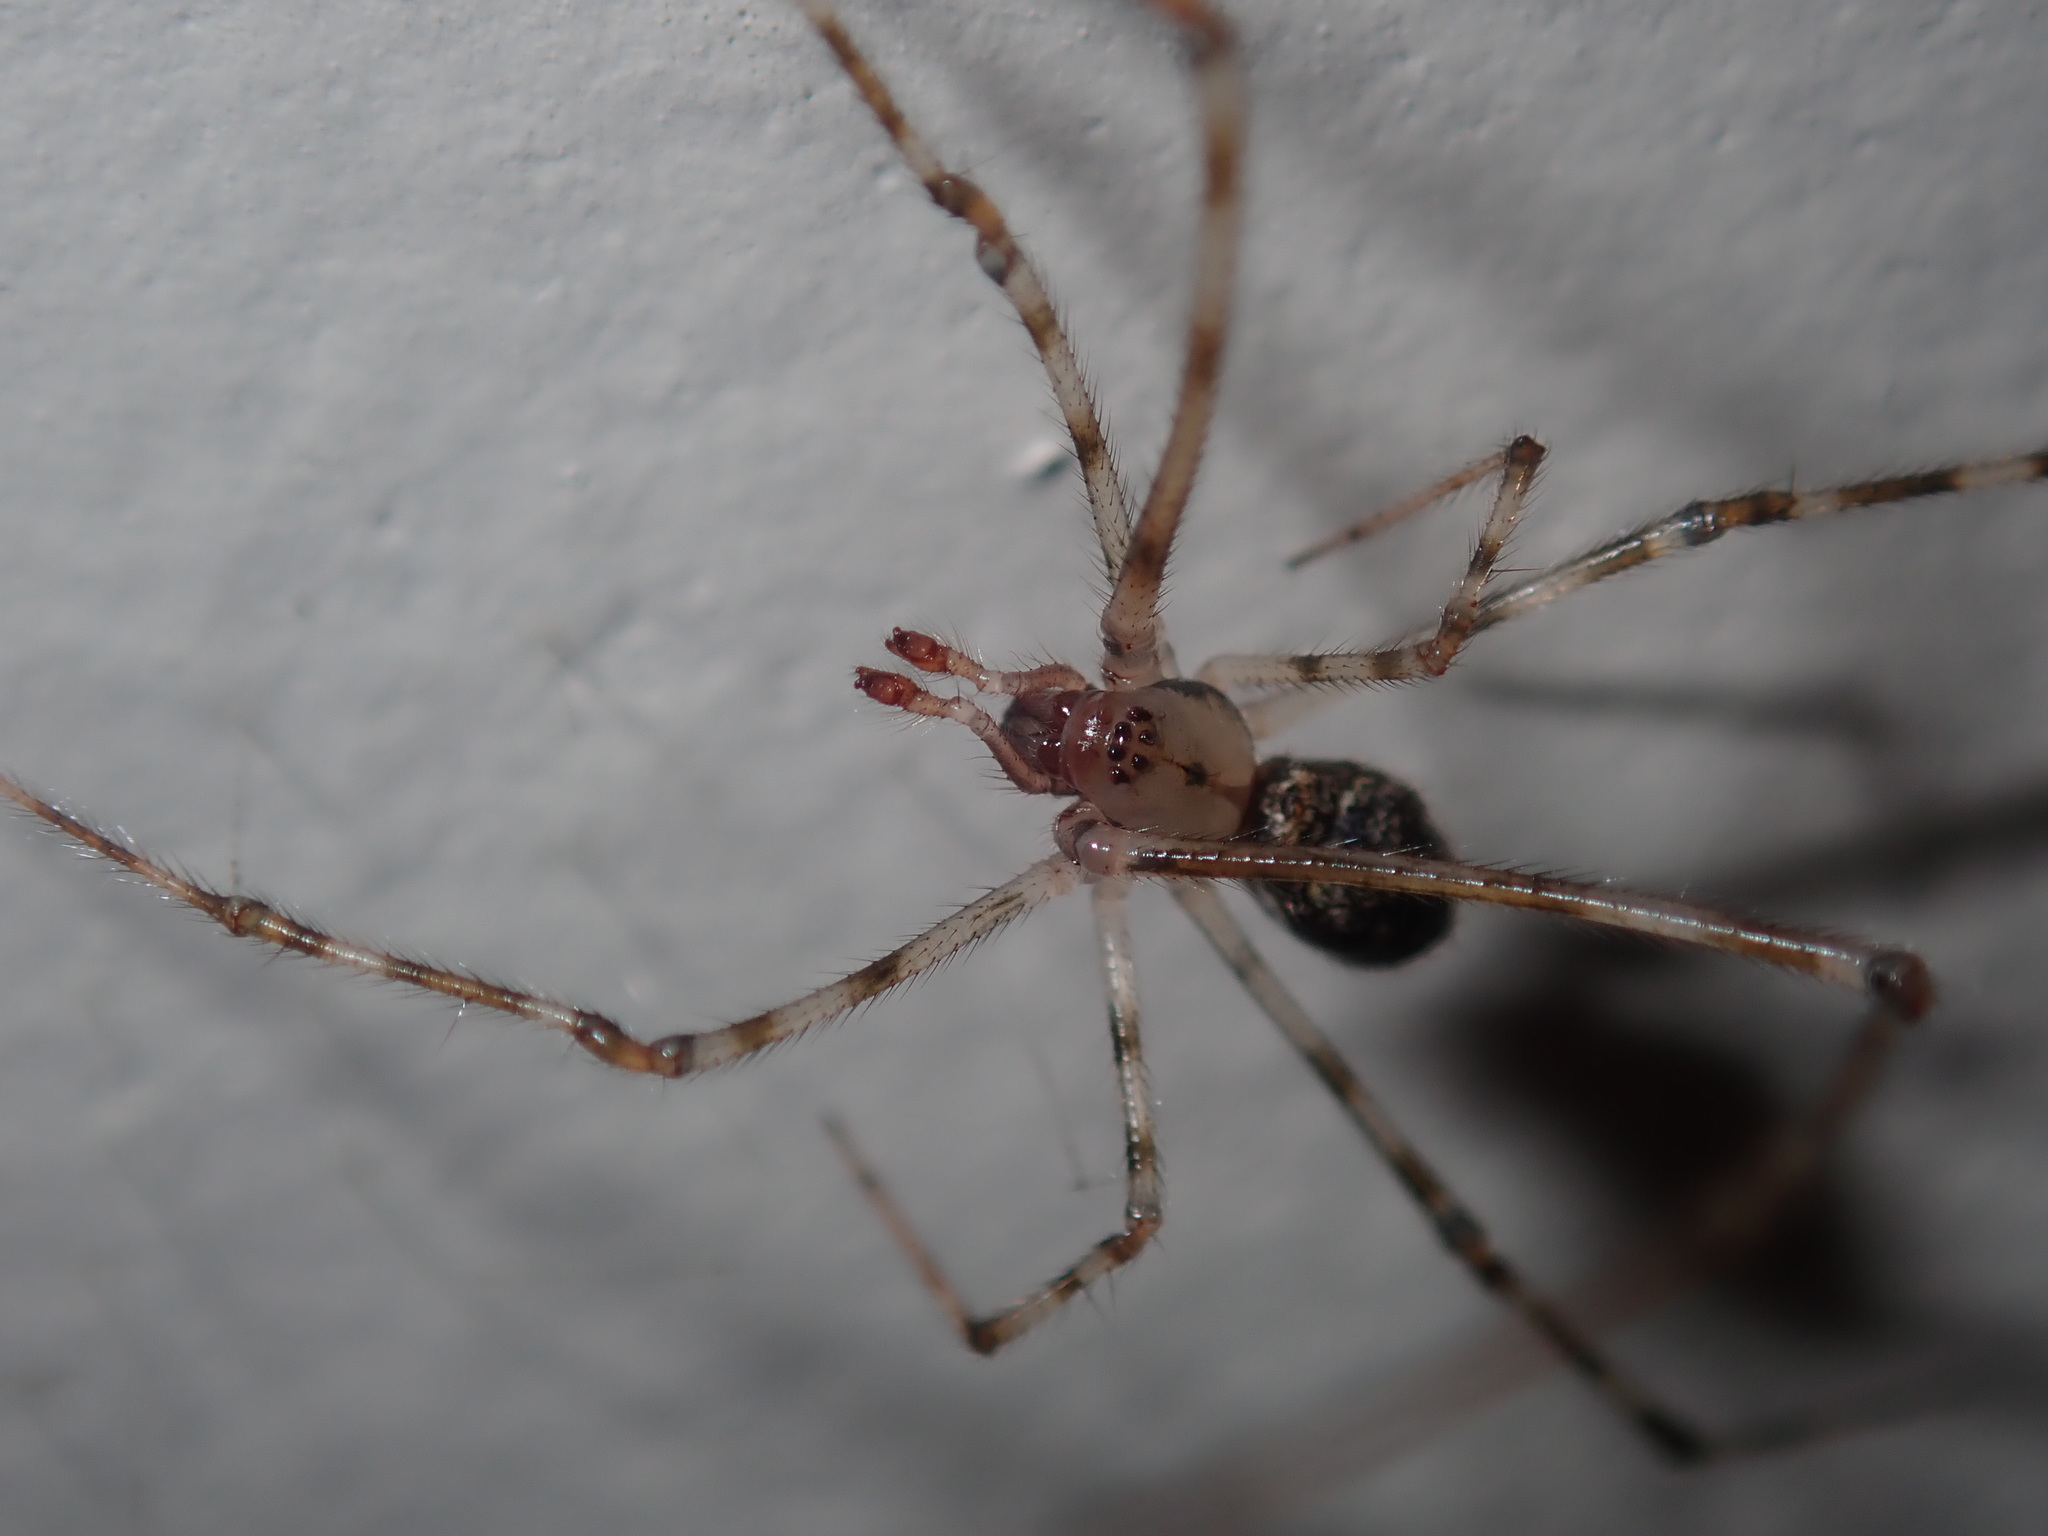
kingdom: Animalia
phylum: Arthropoda
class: Arachnida
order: Araneae
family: Theridiidae
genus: Cryptachaea
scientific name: Cryptachaea gigantipes
